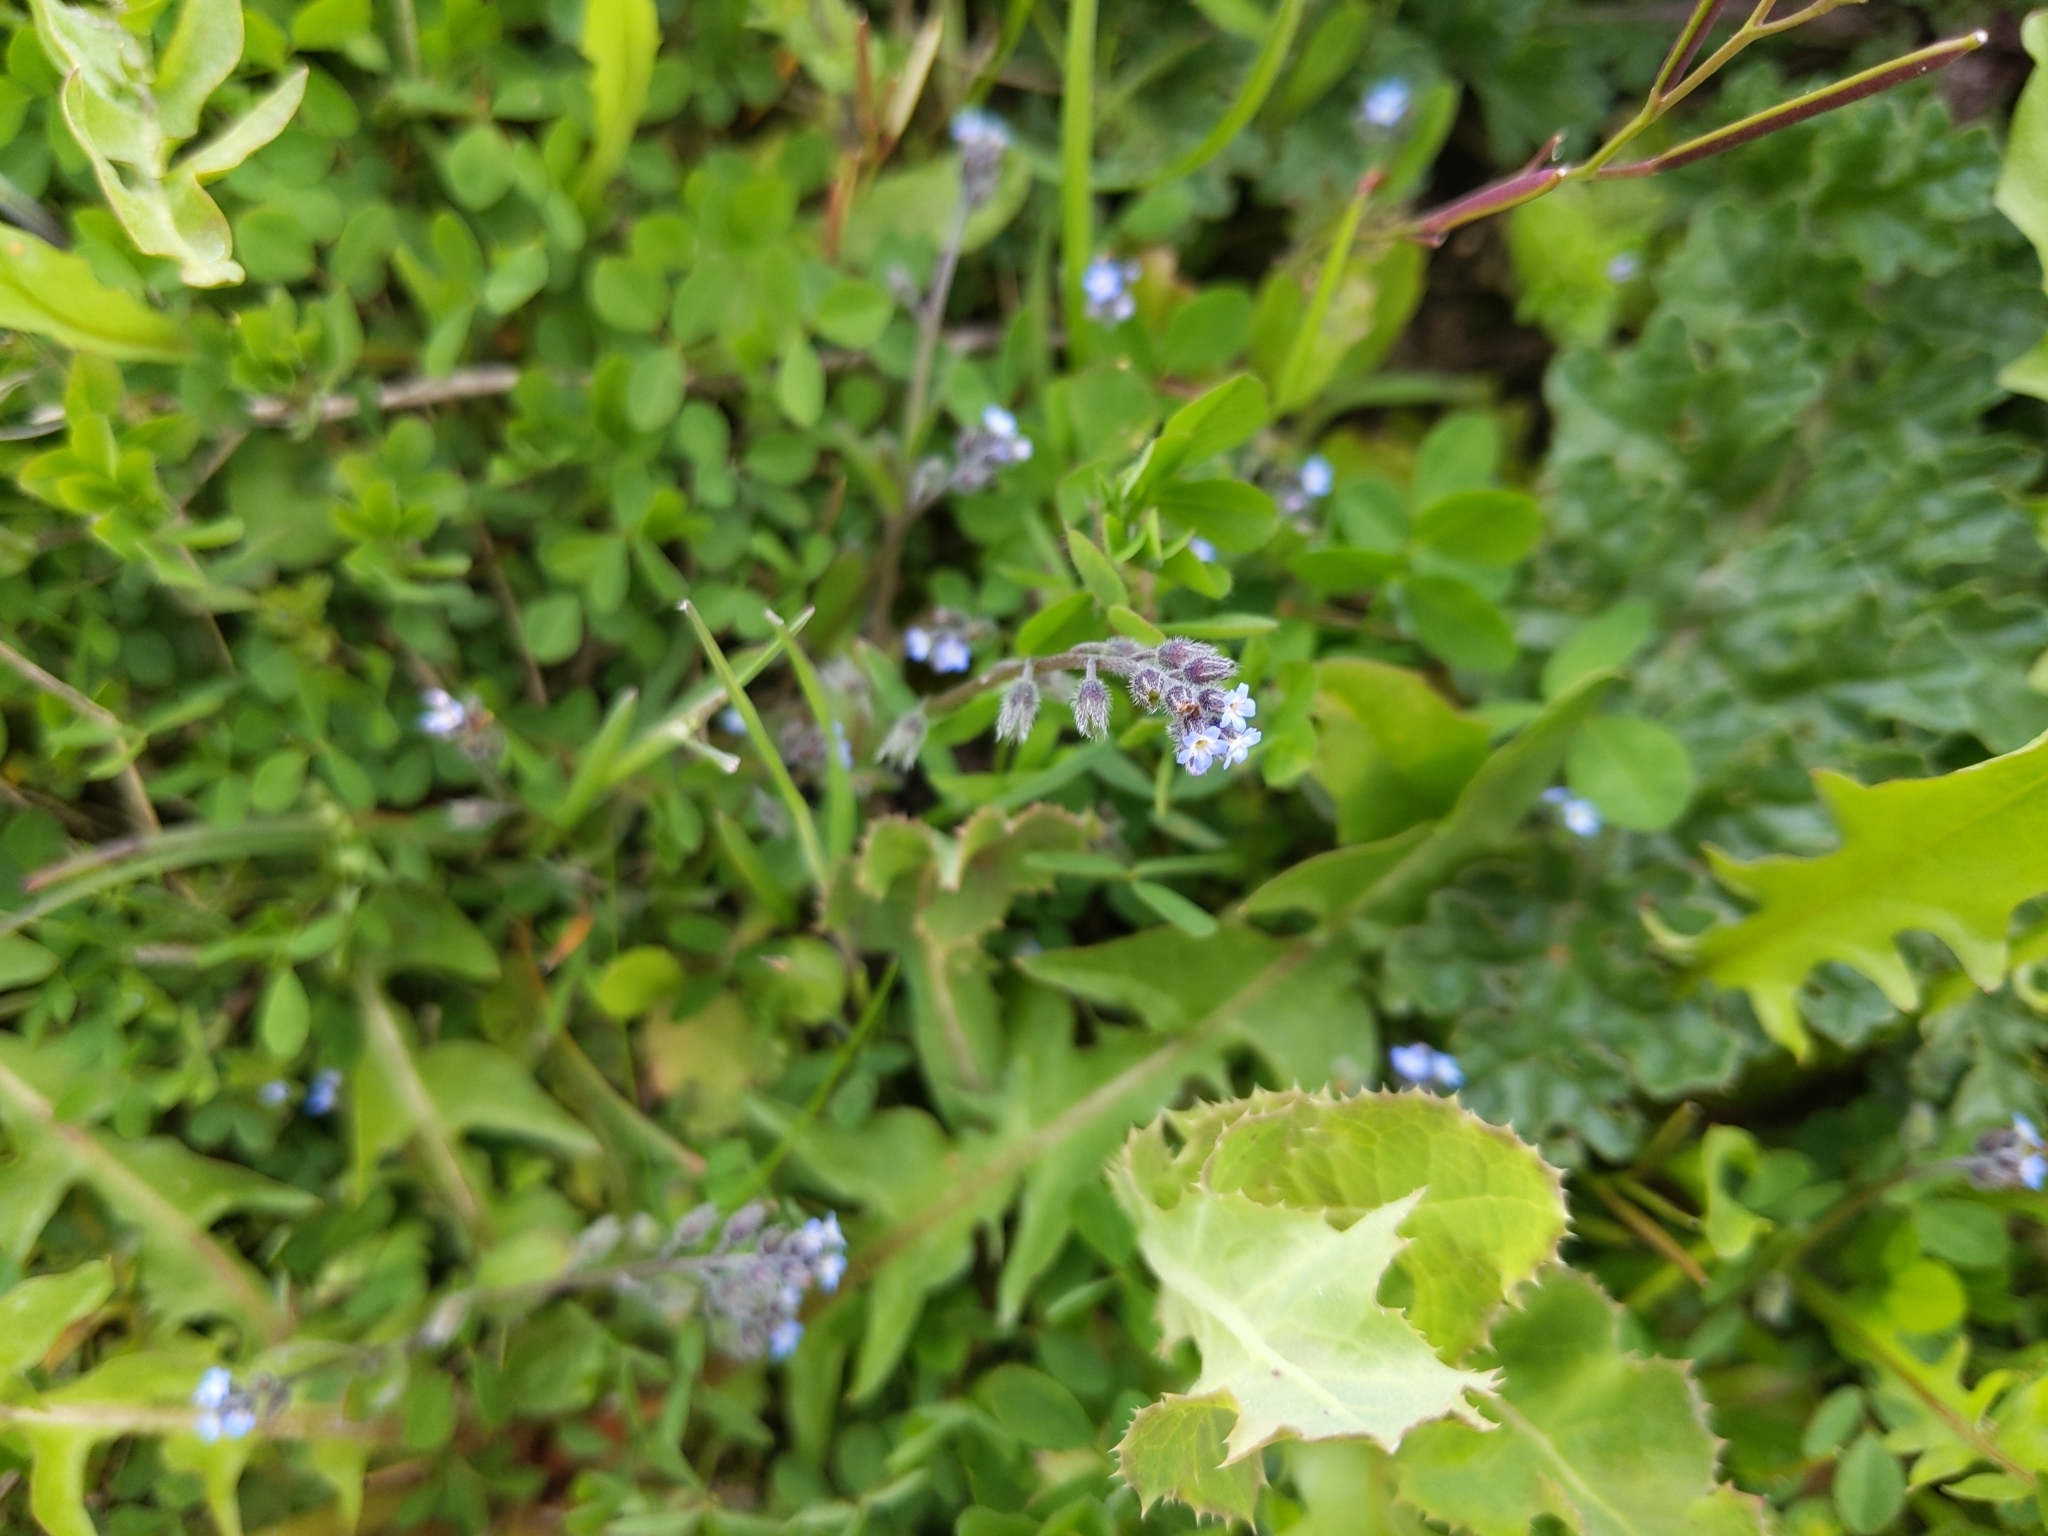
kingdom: Plantae
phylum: Tracheophyta
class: Magnoliopsida
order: Boraginales
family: Boraginaceae
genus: Myosotis
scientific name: Myosotis arvensis
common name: Field forget-me-not
